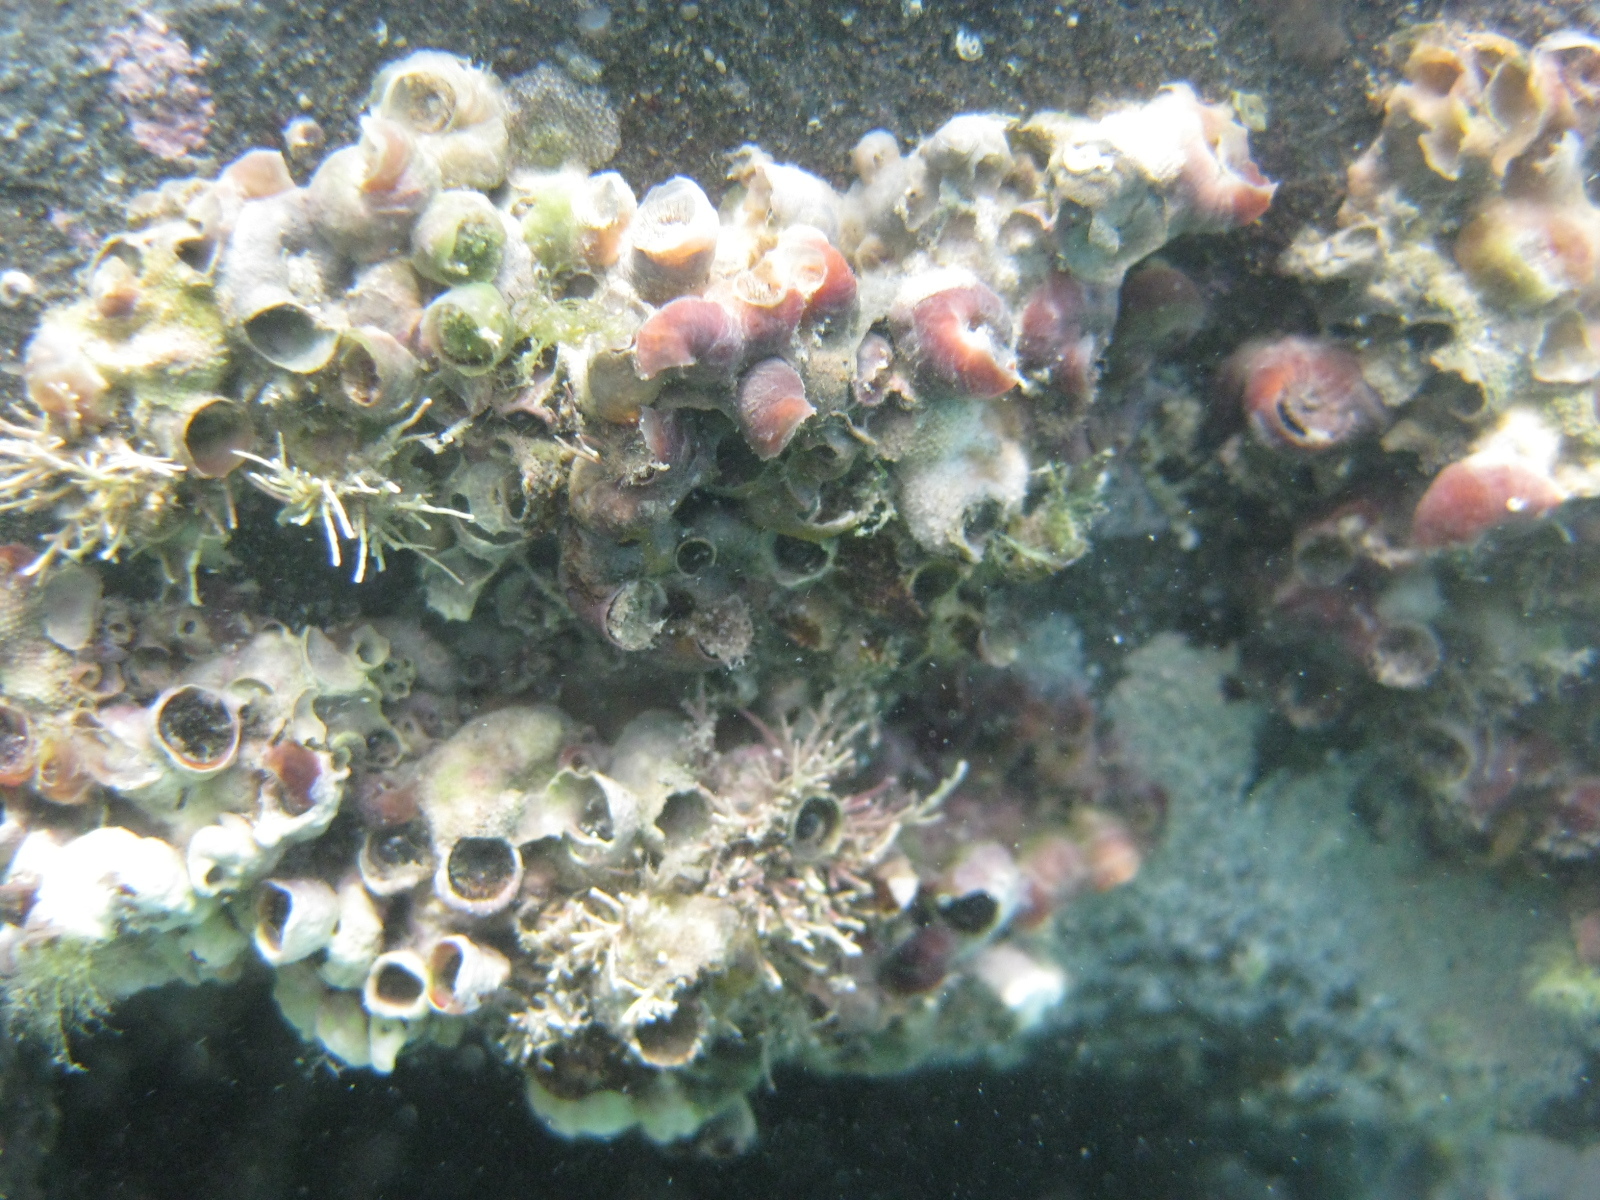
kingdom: Animalia
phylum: Mollusca
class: Gastropoda
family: Siliquariidae
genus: Stephopoma
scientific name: Stephopoma roseum
